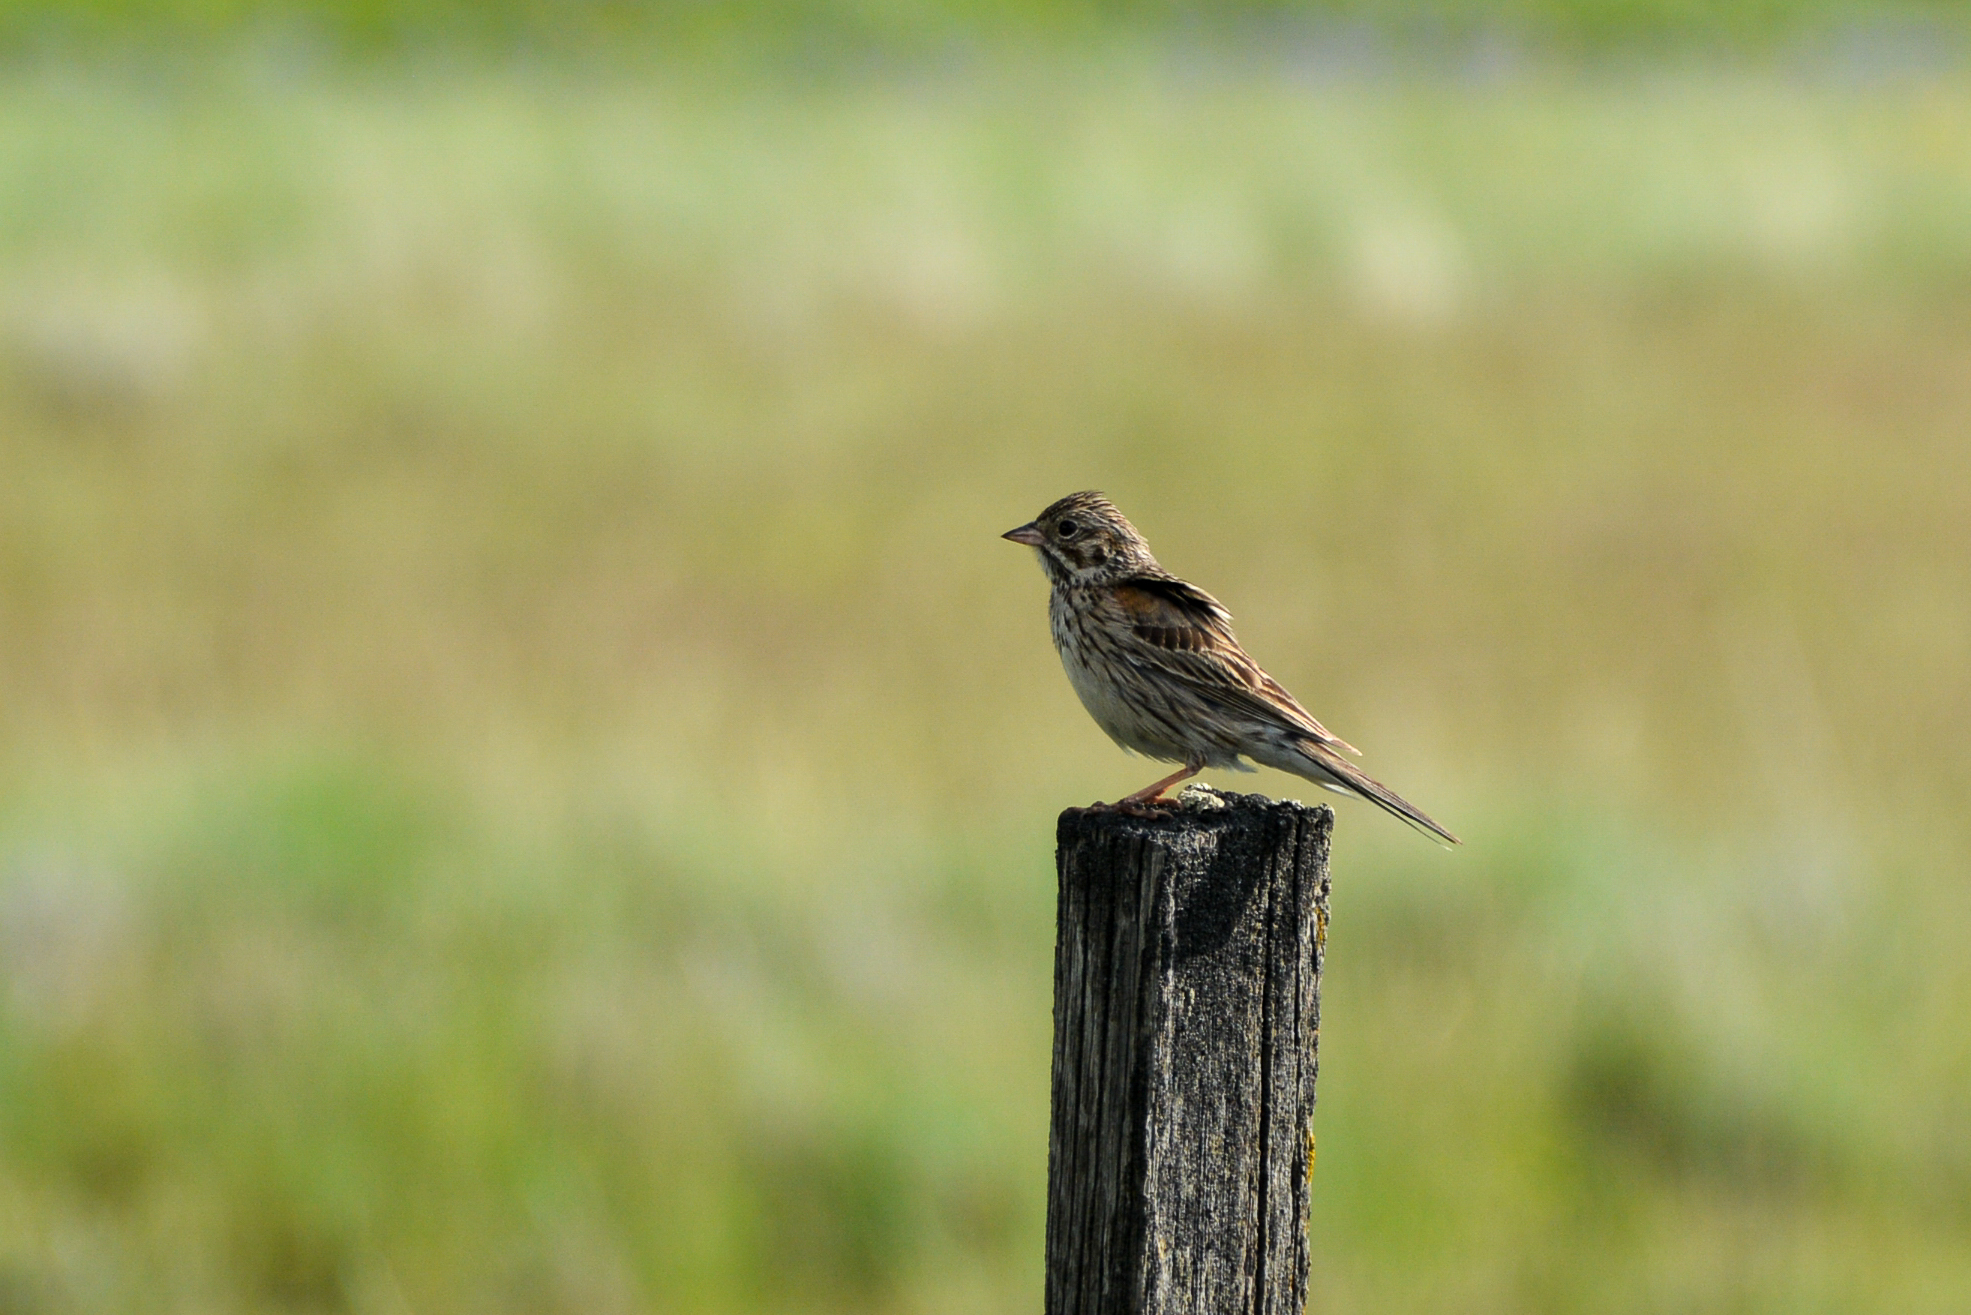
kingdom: Animalia
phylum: Chordata
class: Aves
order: Passeriformes
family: Passerellidae
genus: Pooecetes
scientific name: Pooecetes gramineus
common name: Vesper sparrow
